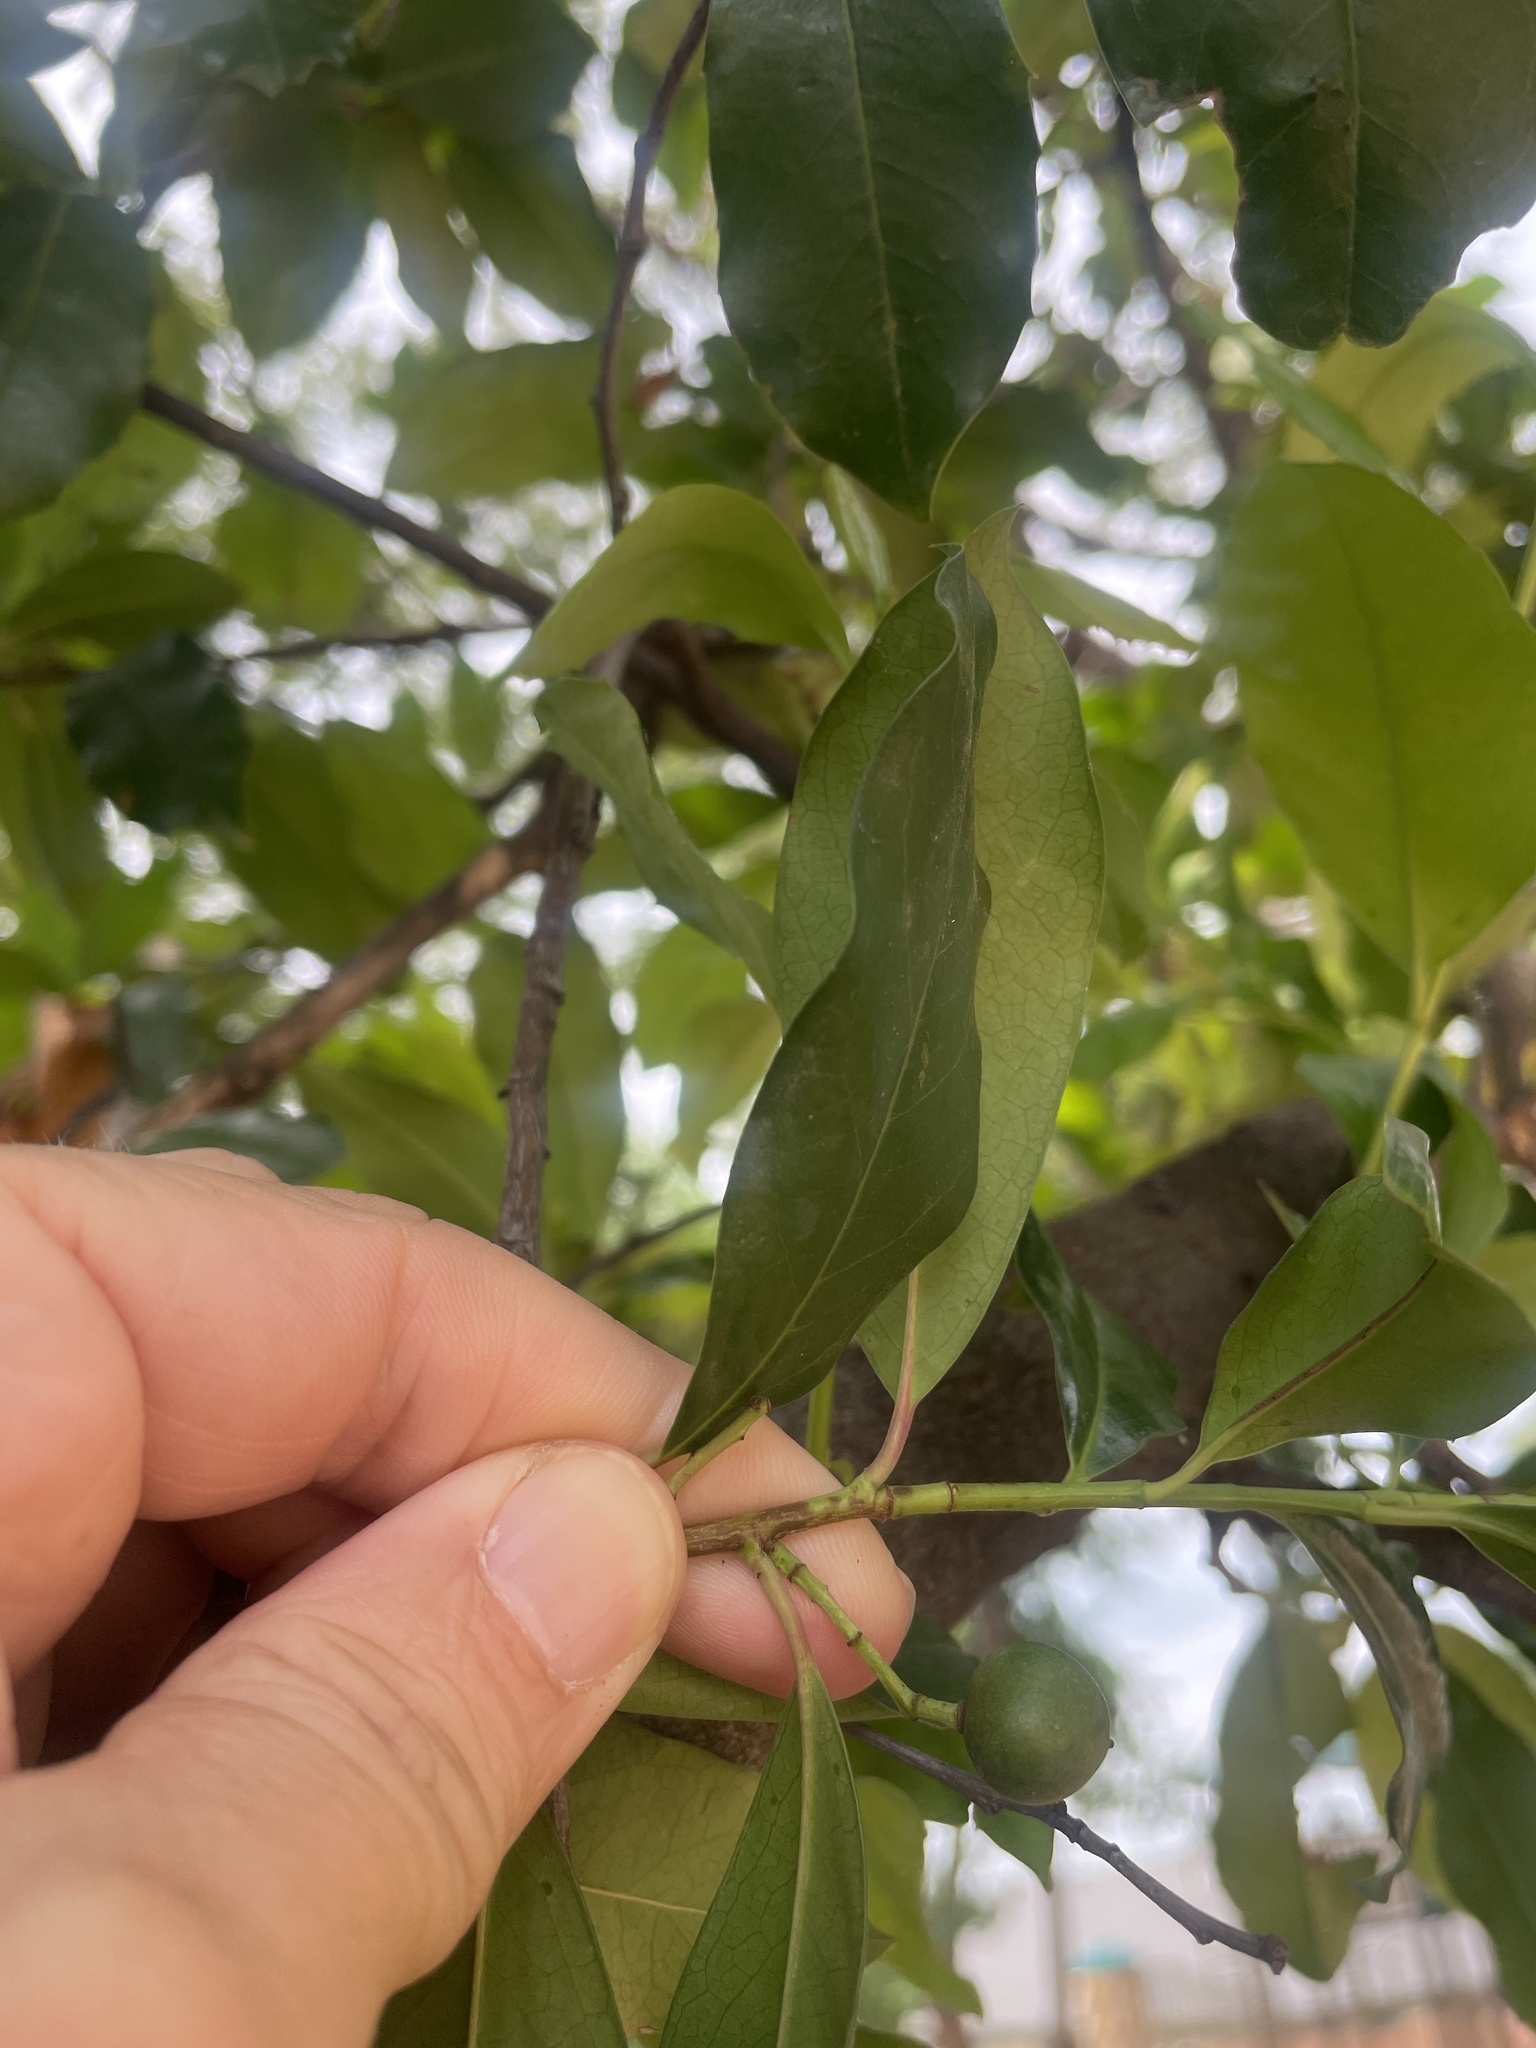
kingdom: Plantae
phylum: Tracheophyta
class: Magnoliopsida
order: Rosales
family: Rosaceae
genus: Prunus
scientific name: Prunus caroliniana
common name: Carolina laurel cherry
